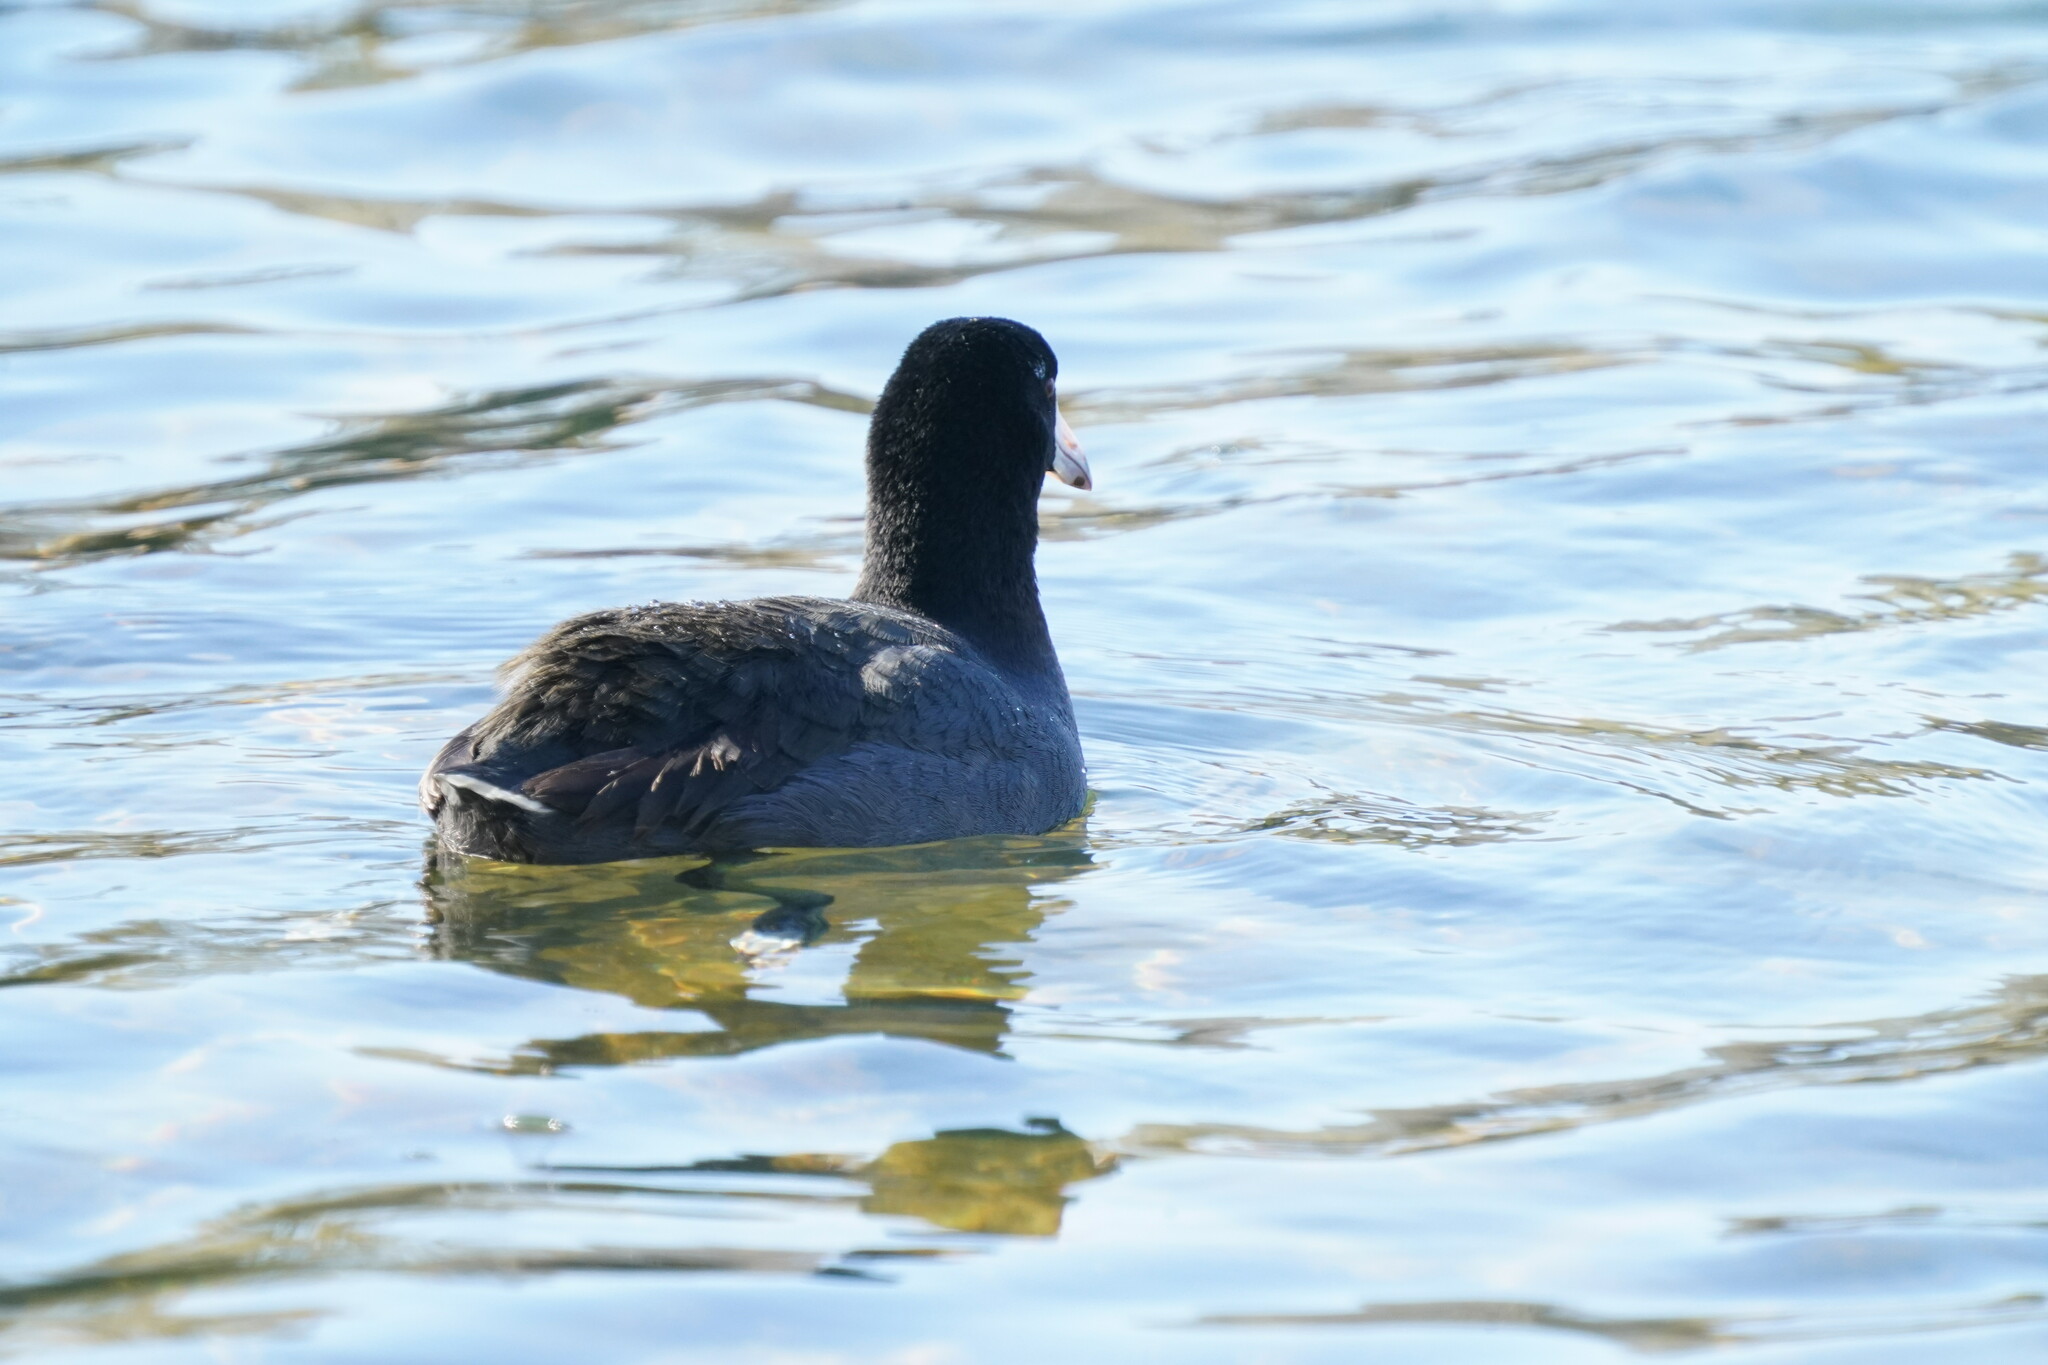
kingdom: Animalia
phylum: Chordata
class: Aves
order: Gruiformes
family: Rallidae
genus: Fulica
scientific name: Fulica americana
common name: American coot
